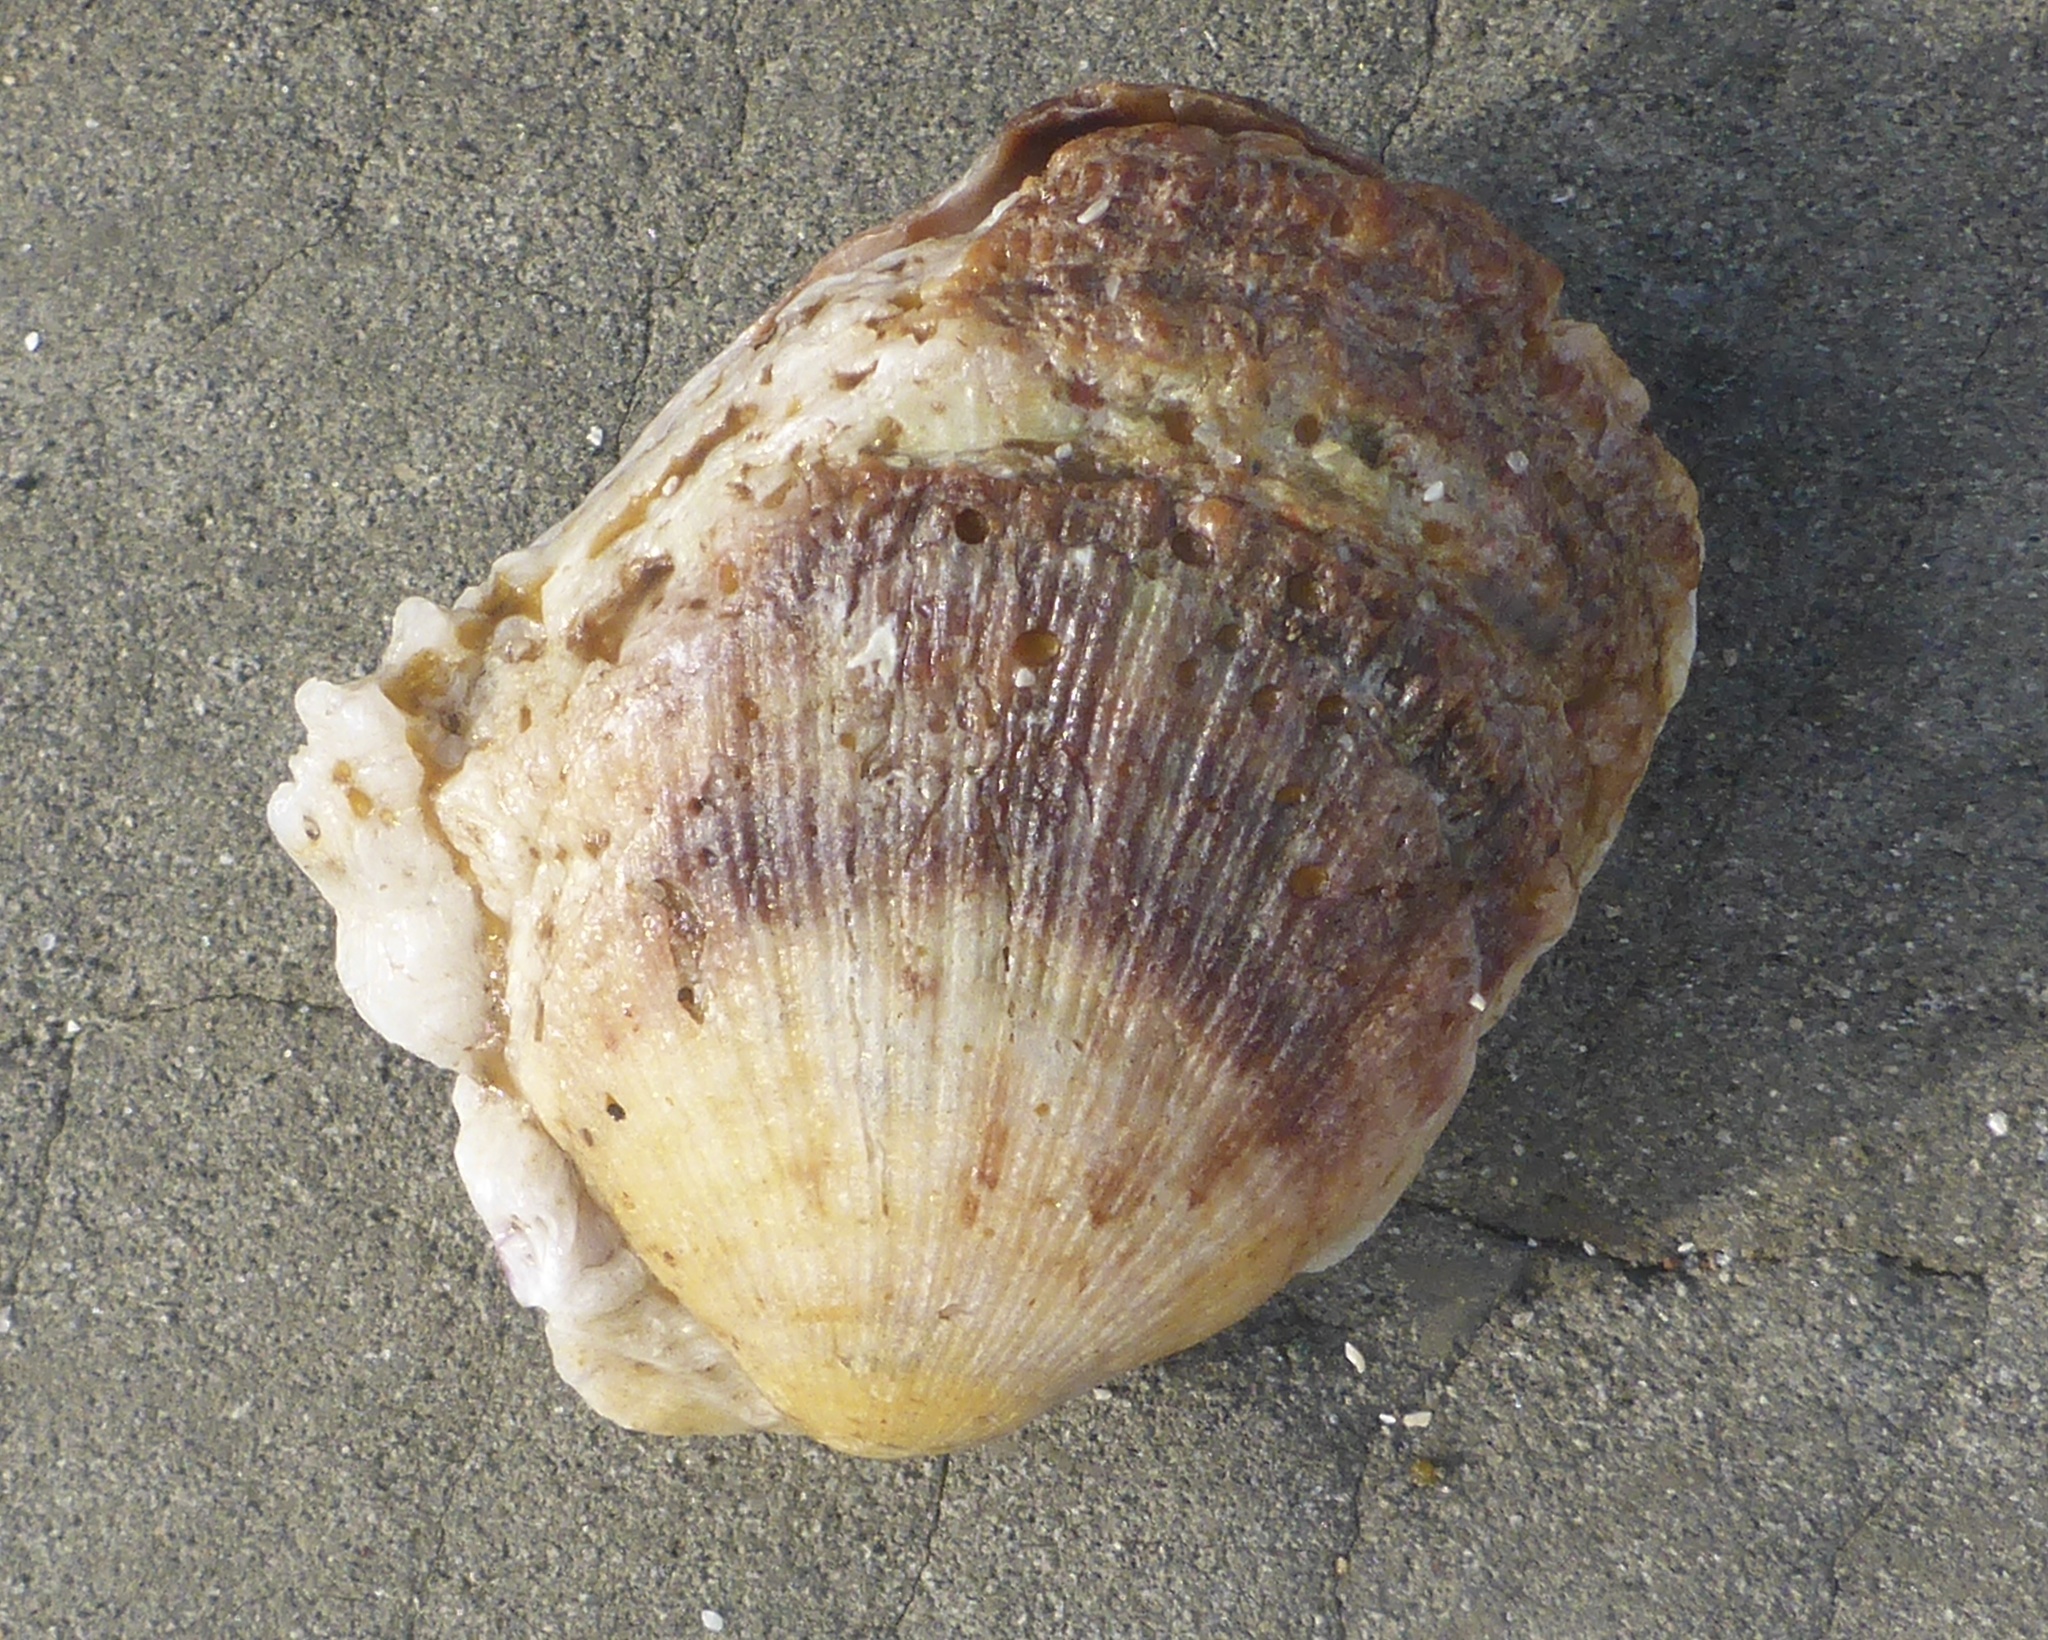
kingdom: Animalia
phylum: Mollusca
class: Bivalvia
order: Pectinida
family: Pectinidae
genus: Crassadoma
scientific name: Crassadoma gigantea
